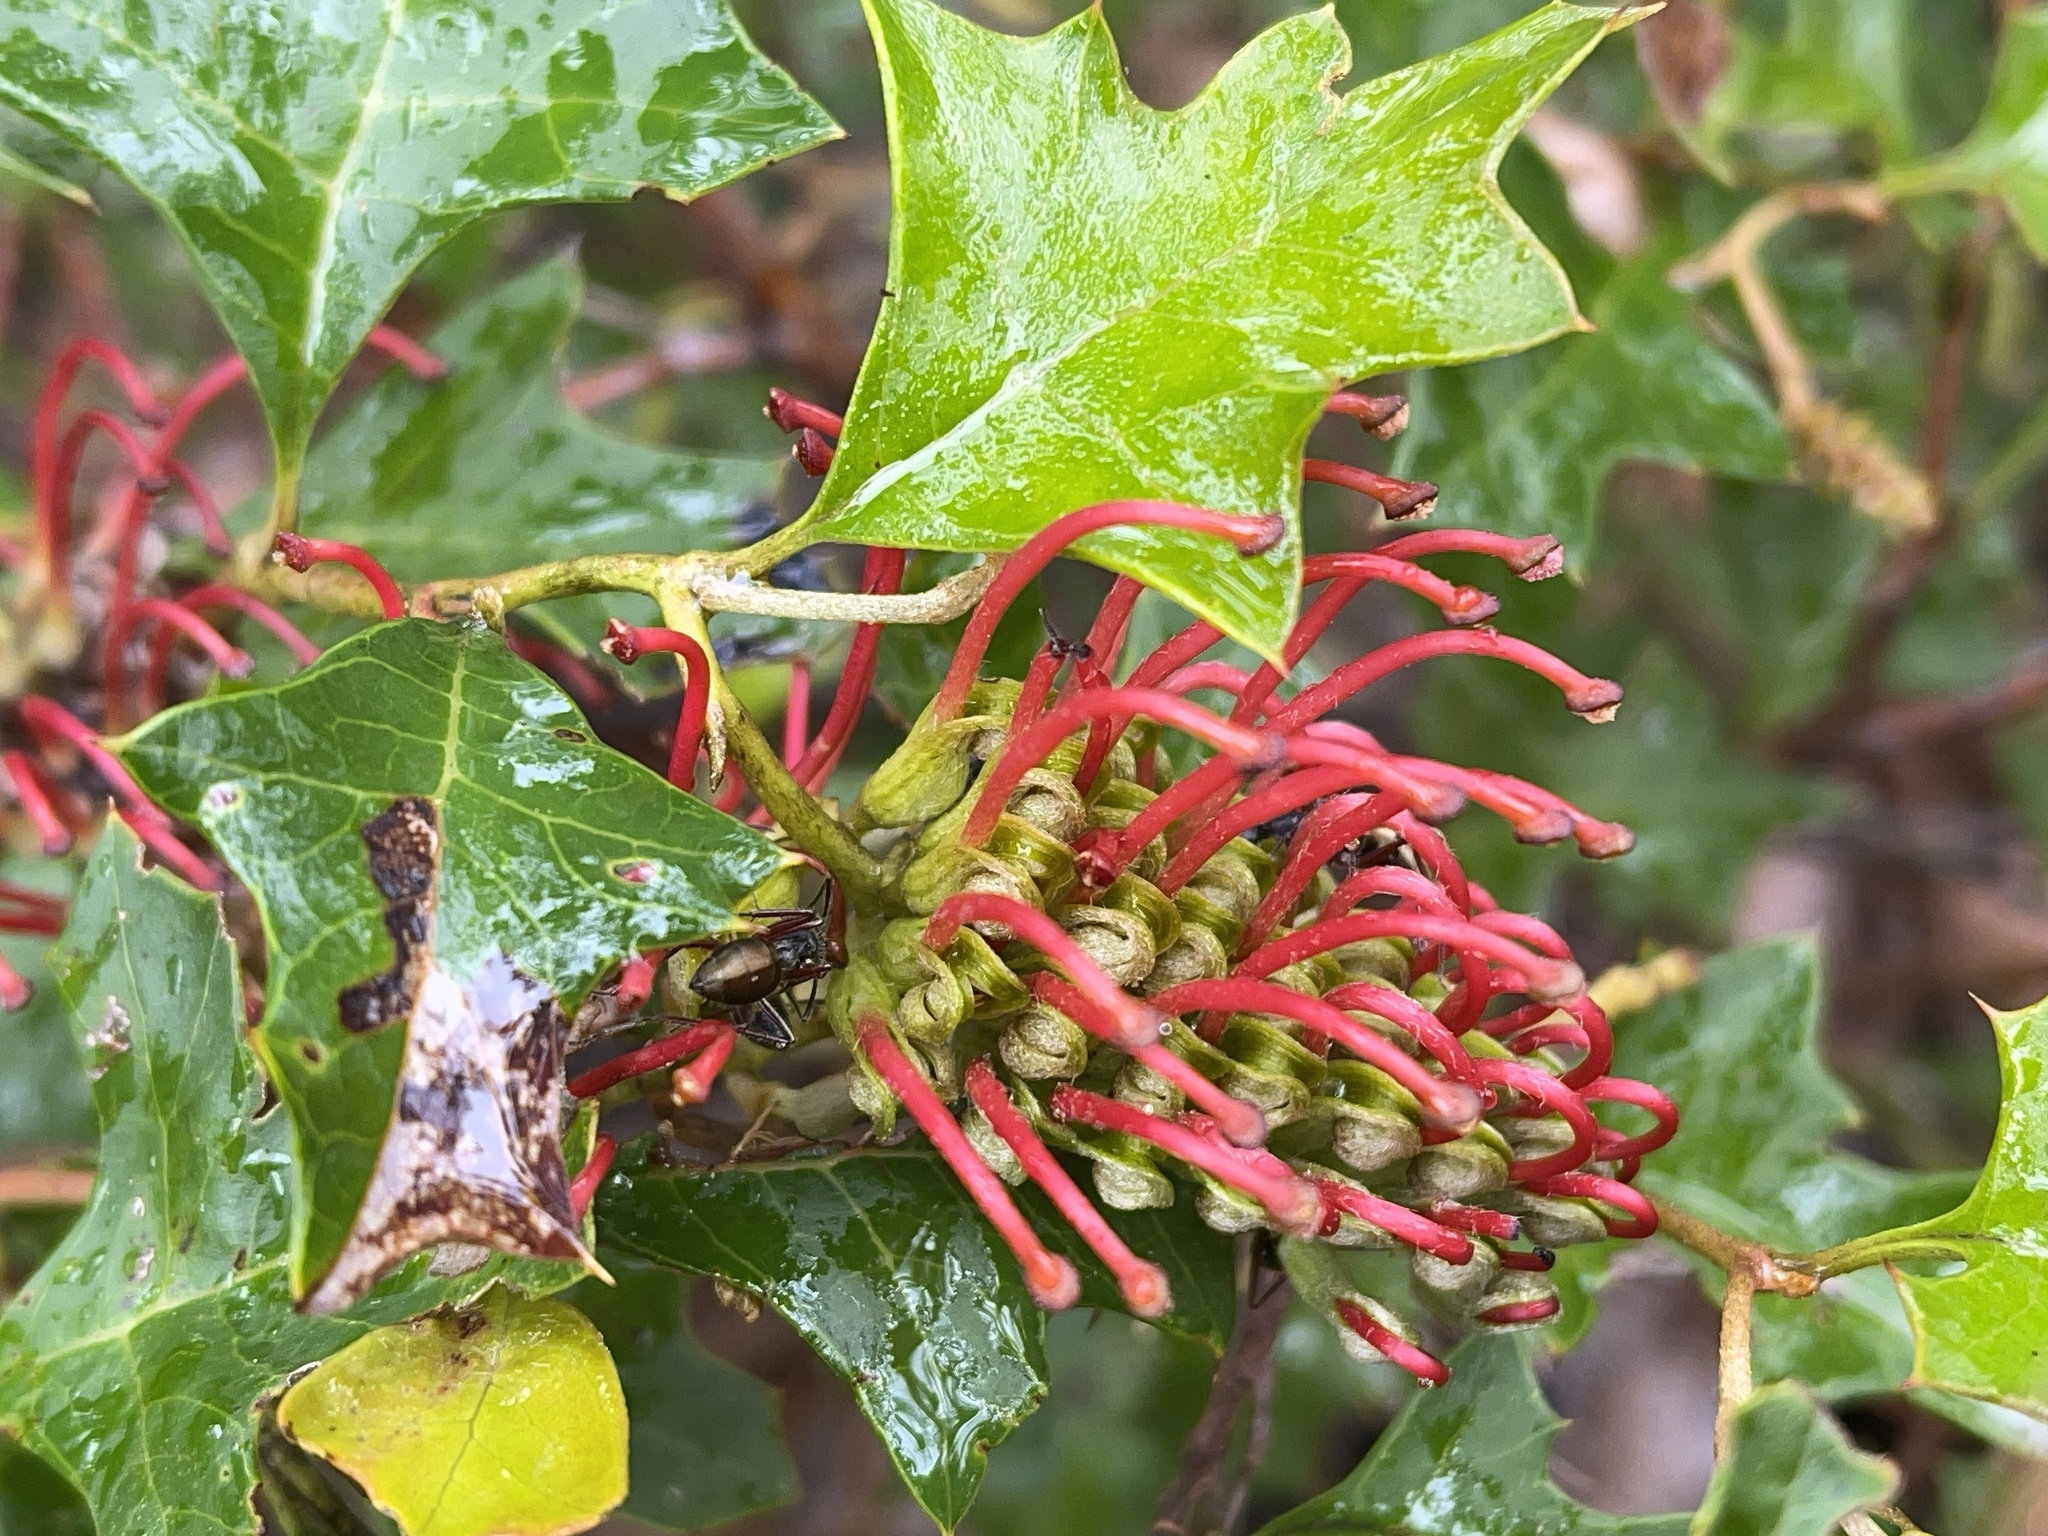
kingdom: Plantae
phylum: Tracheophyta
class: Magnoliopsida
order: Proteales
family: Proteaceae
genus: Grevillea
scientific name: Grevillea steiglitziana
